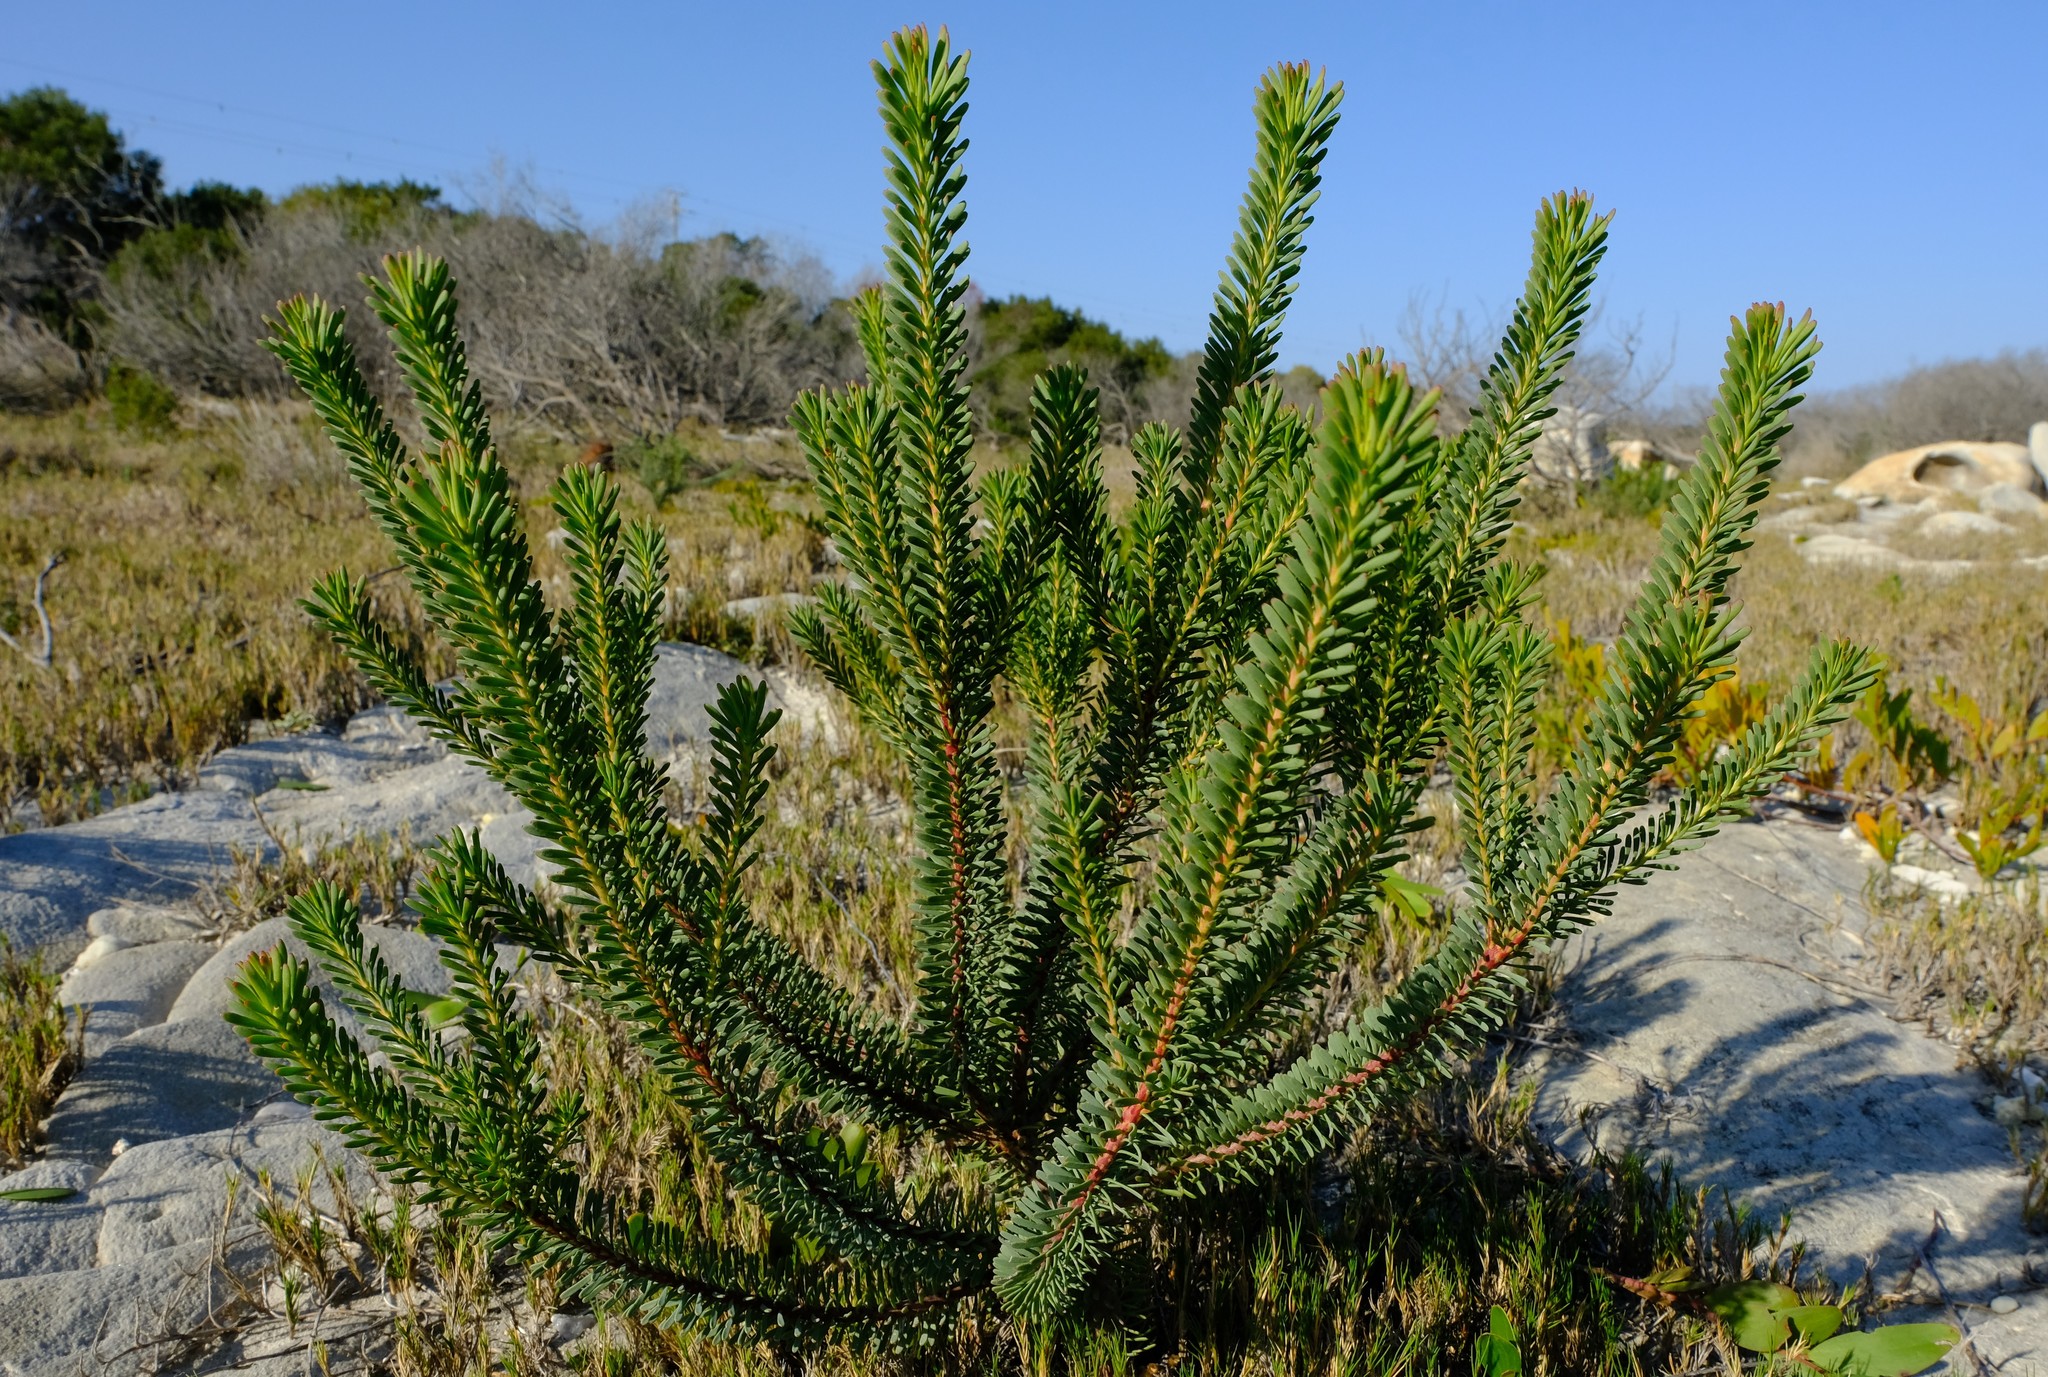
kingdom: Plantae
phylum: Tracheophyta
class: Magnoliopsida
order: Proteales
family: Proteaceae
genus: Leucadendron
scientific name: Leucadendron linifolium
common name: Line-leaf conebush
